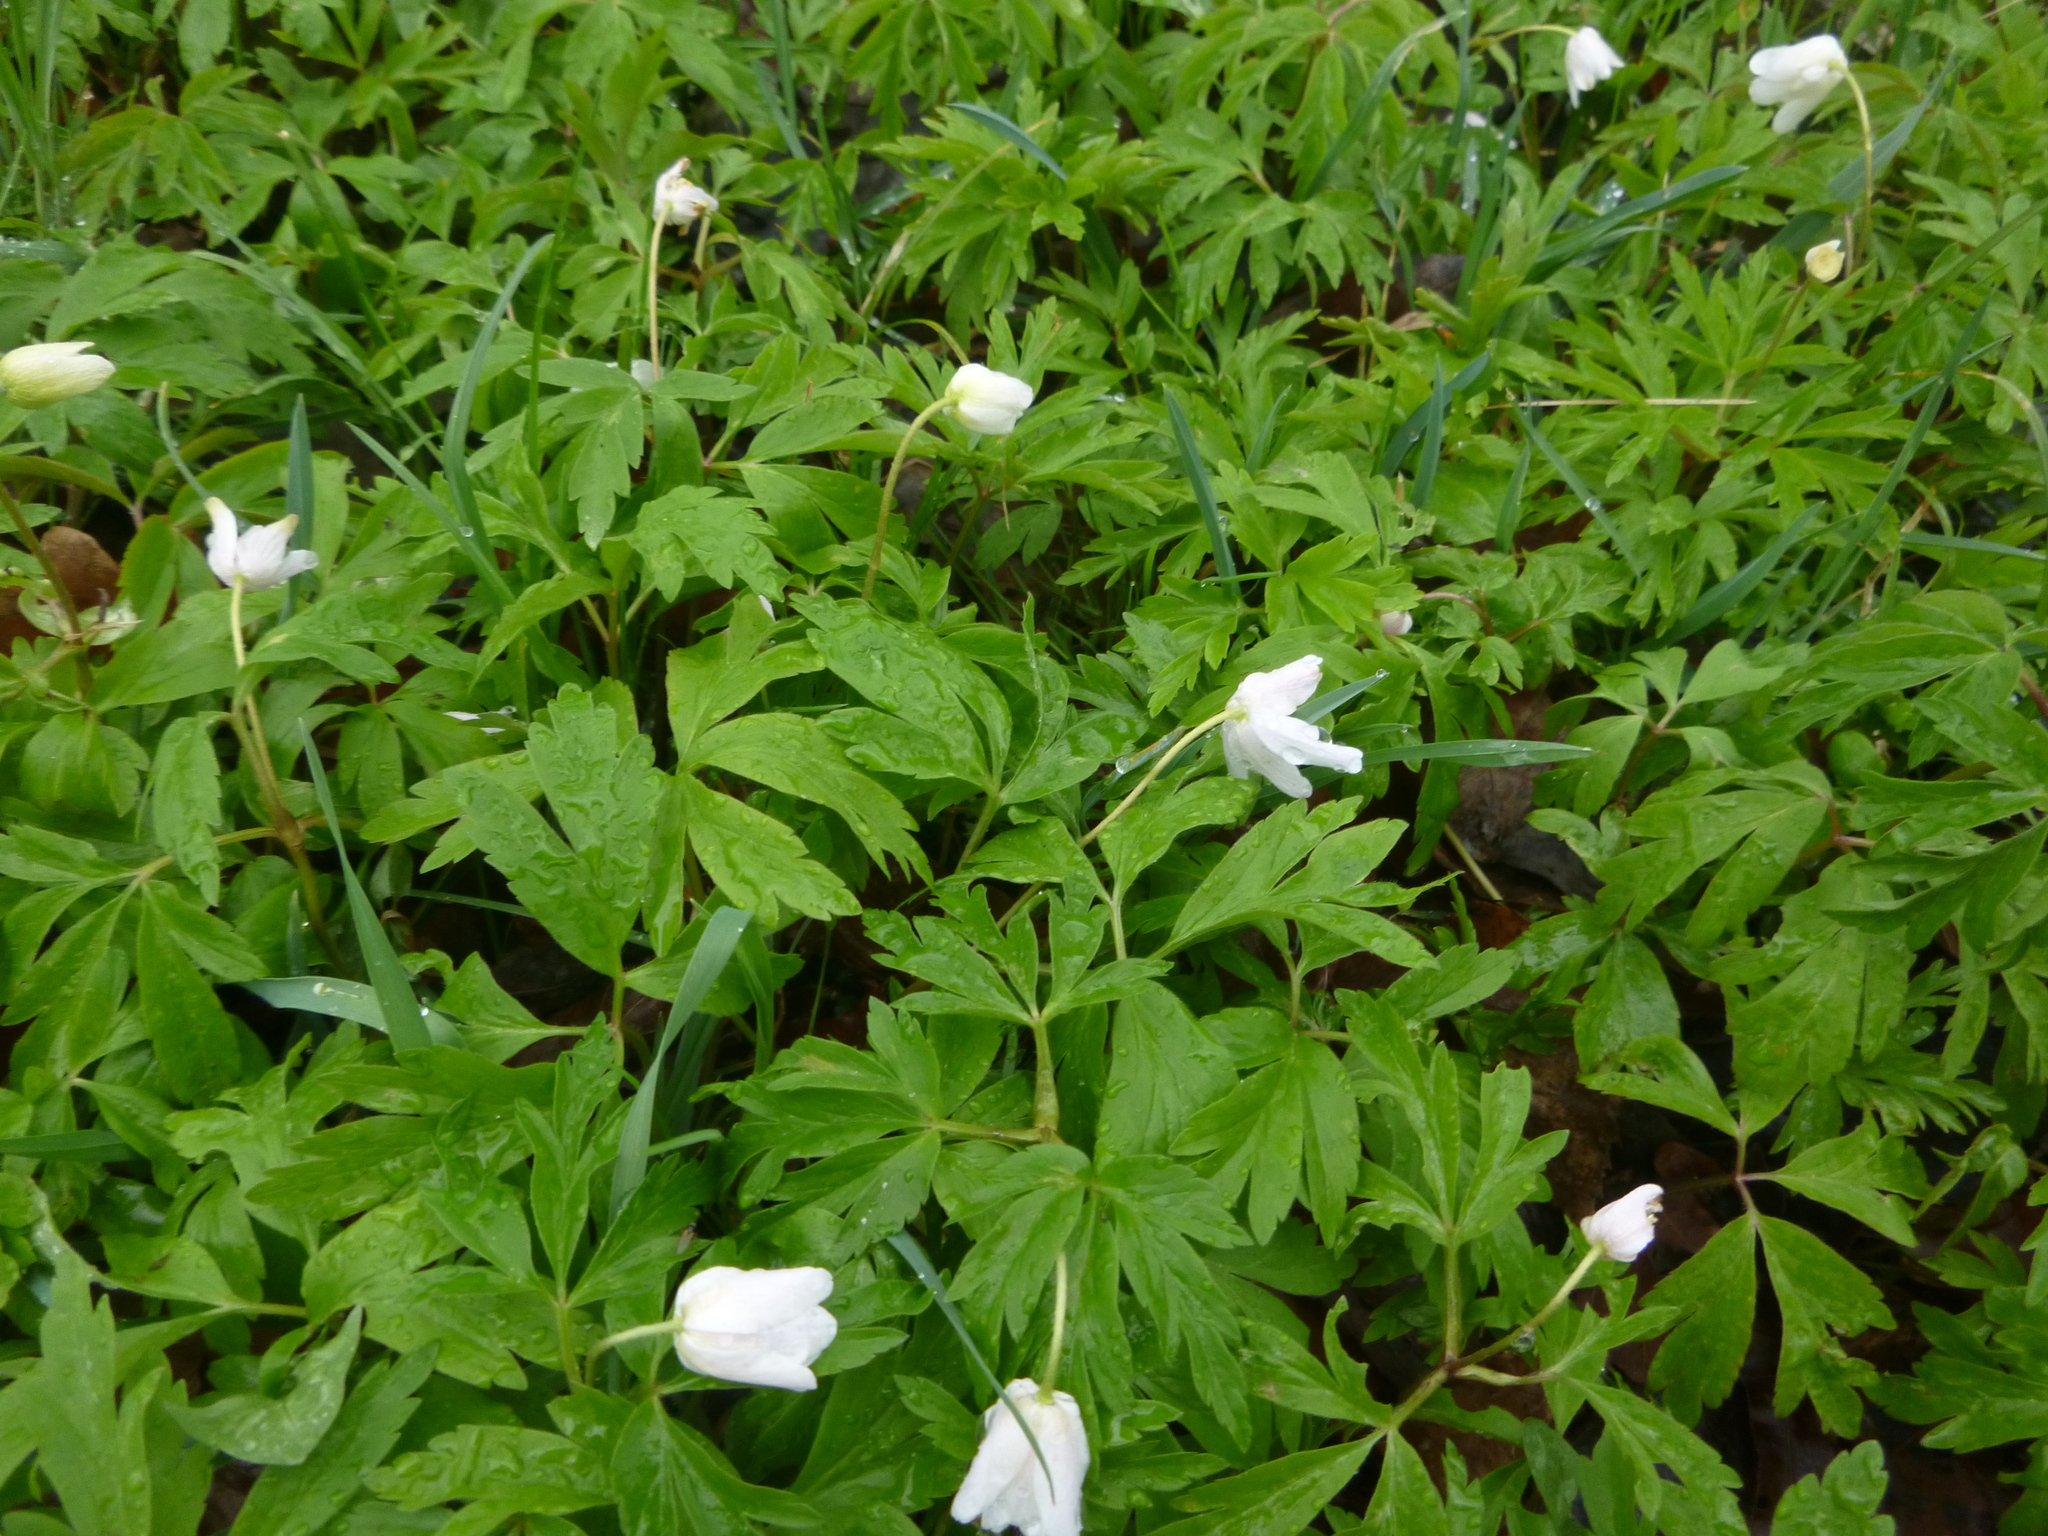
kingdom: Plantae
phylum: Tracheophyta
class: Magnoliopsida
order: Ranunculales
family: Ranunculaceae
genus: Anemone
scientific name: Anemone nemorosa
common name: Wood anemone
